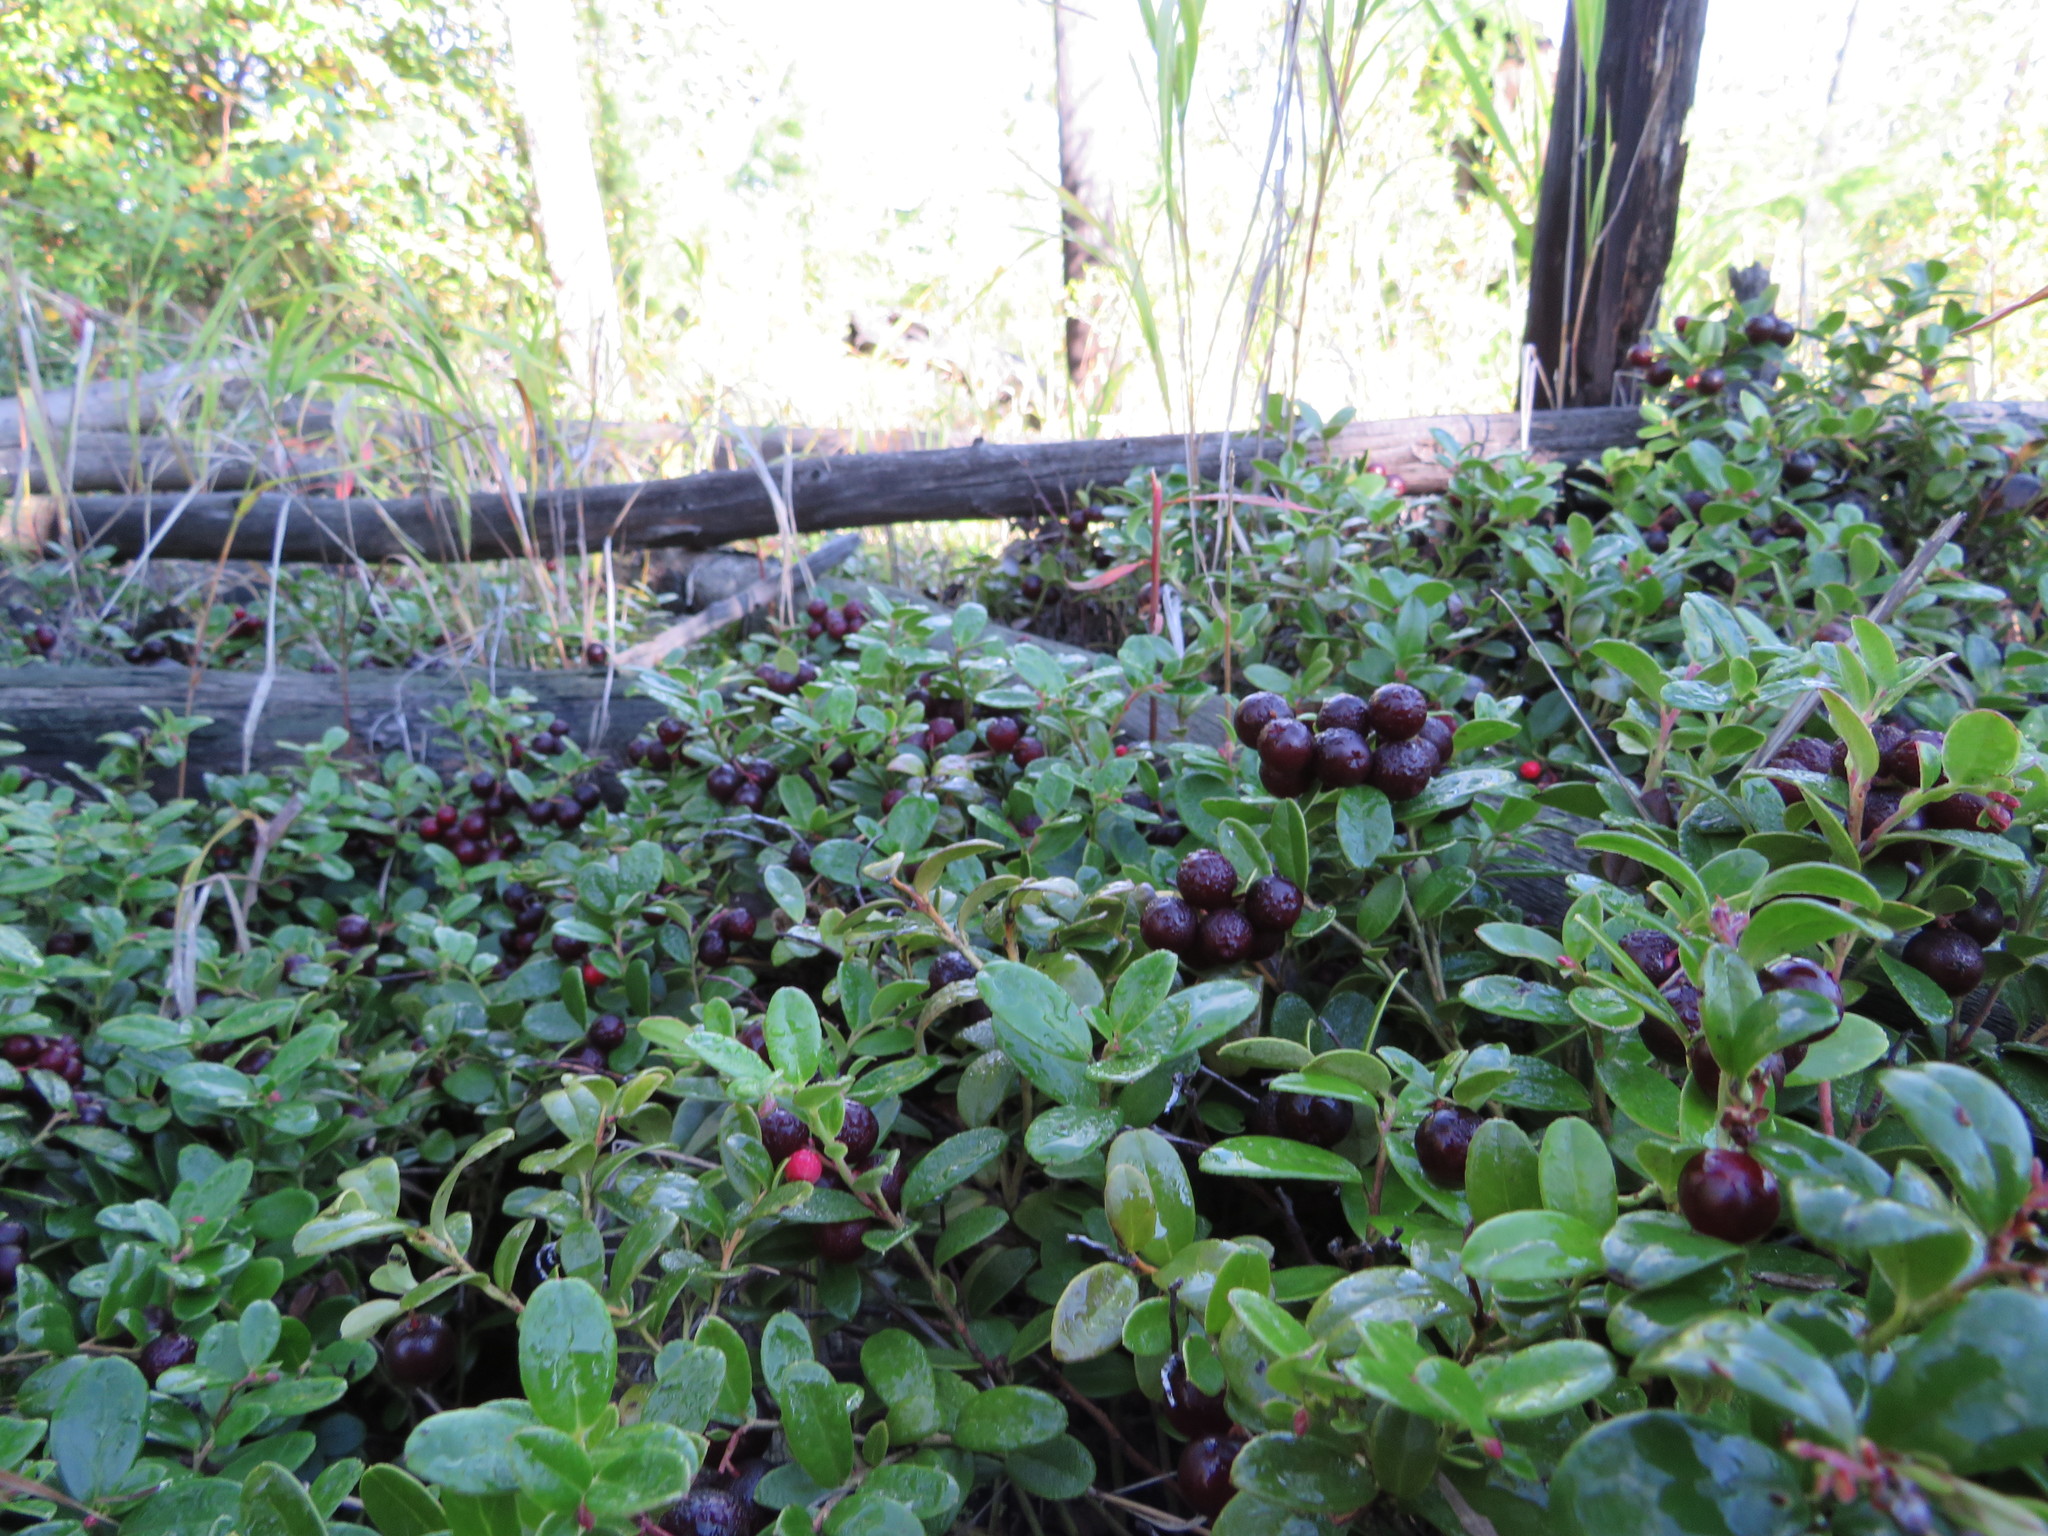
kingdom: Plantae
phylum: Tracheophyta
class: Magnoliopsida
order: Ericales
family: Ericaceae
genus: Vaccinium
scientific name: Vaccinium vitis-idaea
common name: Cowberry
